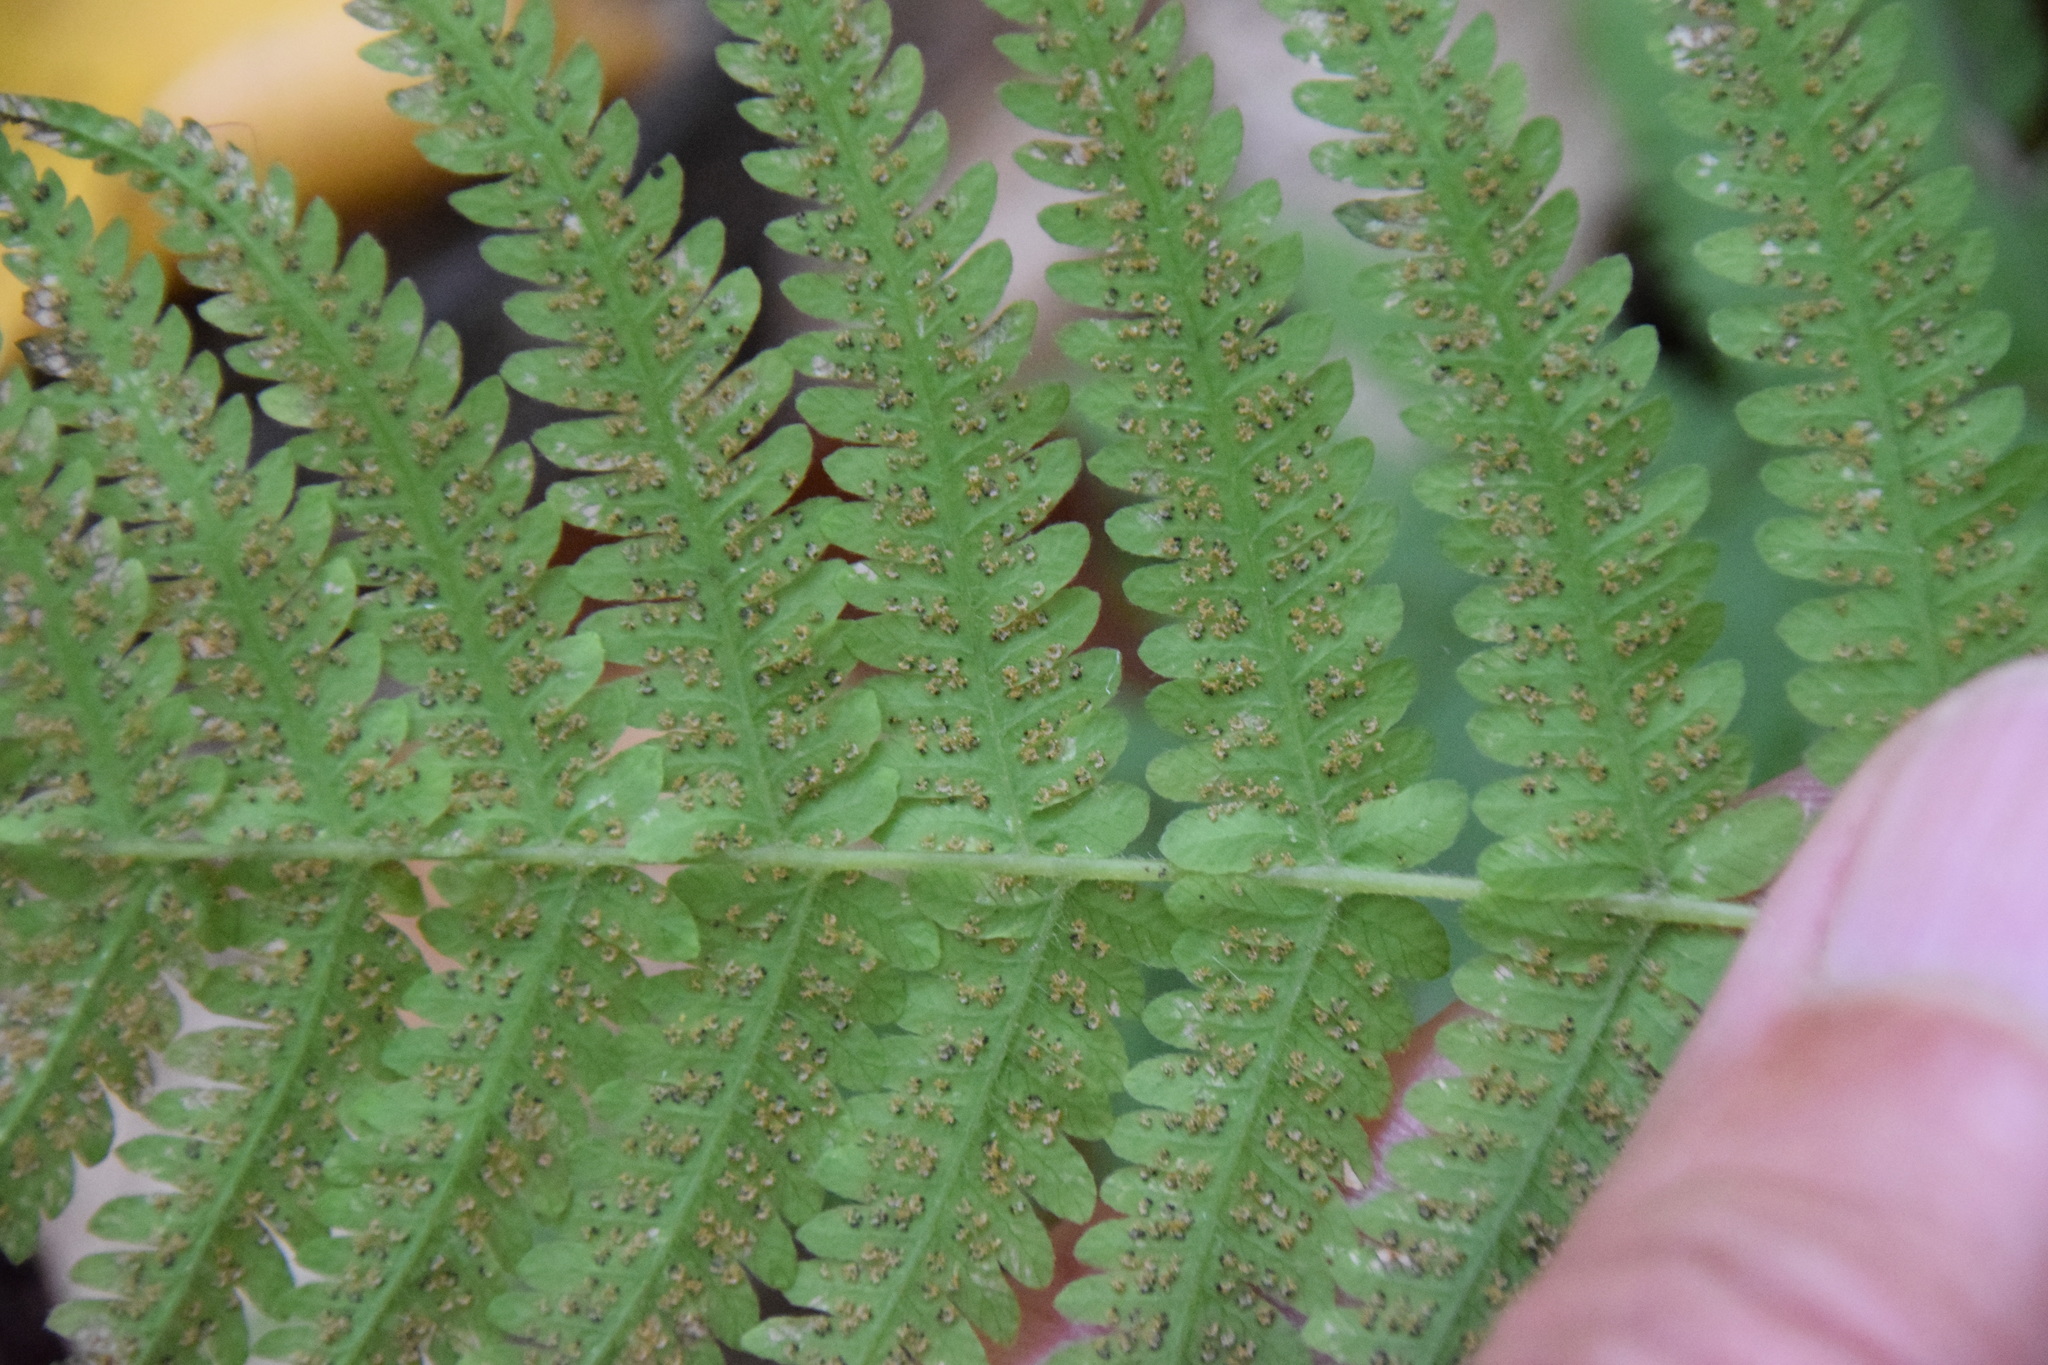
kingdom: Plantae
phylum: Tracheophyta
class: Polypodiopsida
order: Polypodiales
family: Thelypteridaceae
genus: Amauropelta
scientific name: Amauropelta noveboracensis
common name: New york fern
